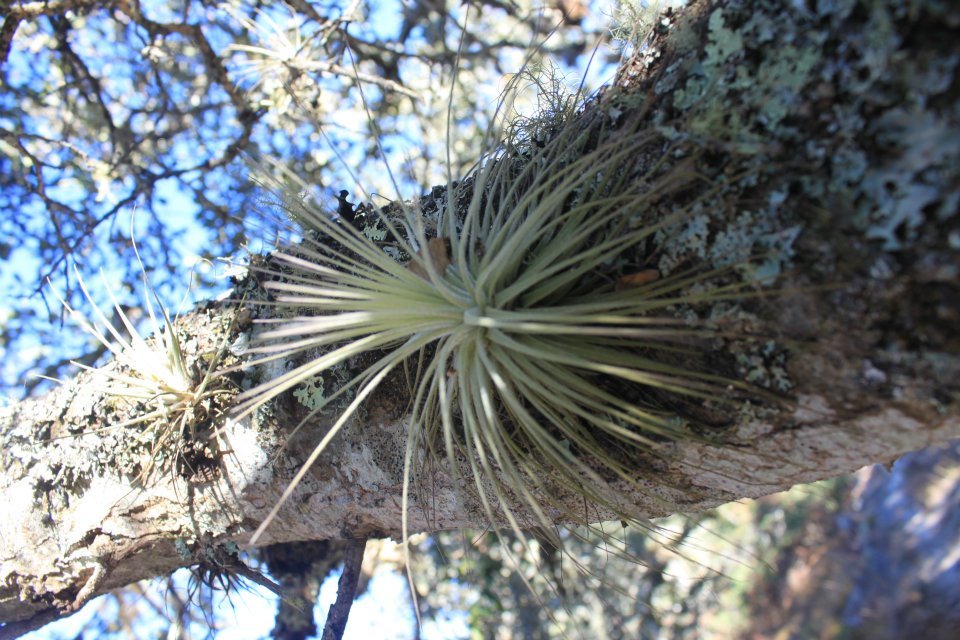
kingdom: Plantae
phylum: Tracheophyta
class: Liliopsida
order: Poales
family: Bromeliaceae
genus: Tillandsia
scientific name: Tillandsia magnusiana
